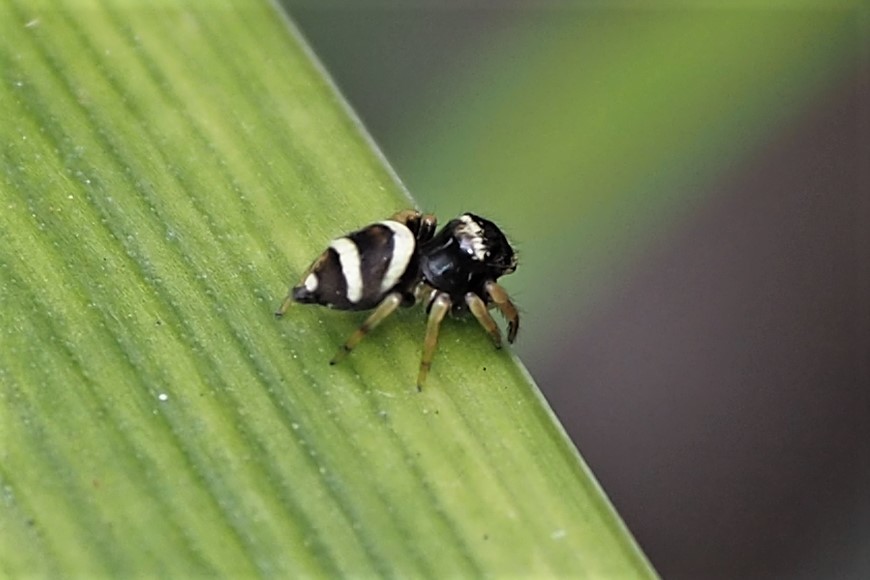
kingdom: Animalia
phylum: Arthropoda
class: Arachnida
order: Araneae
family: Salticidae
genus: Ptocasius
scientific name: Ptocasius strupifer
